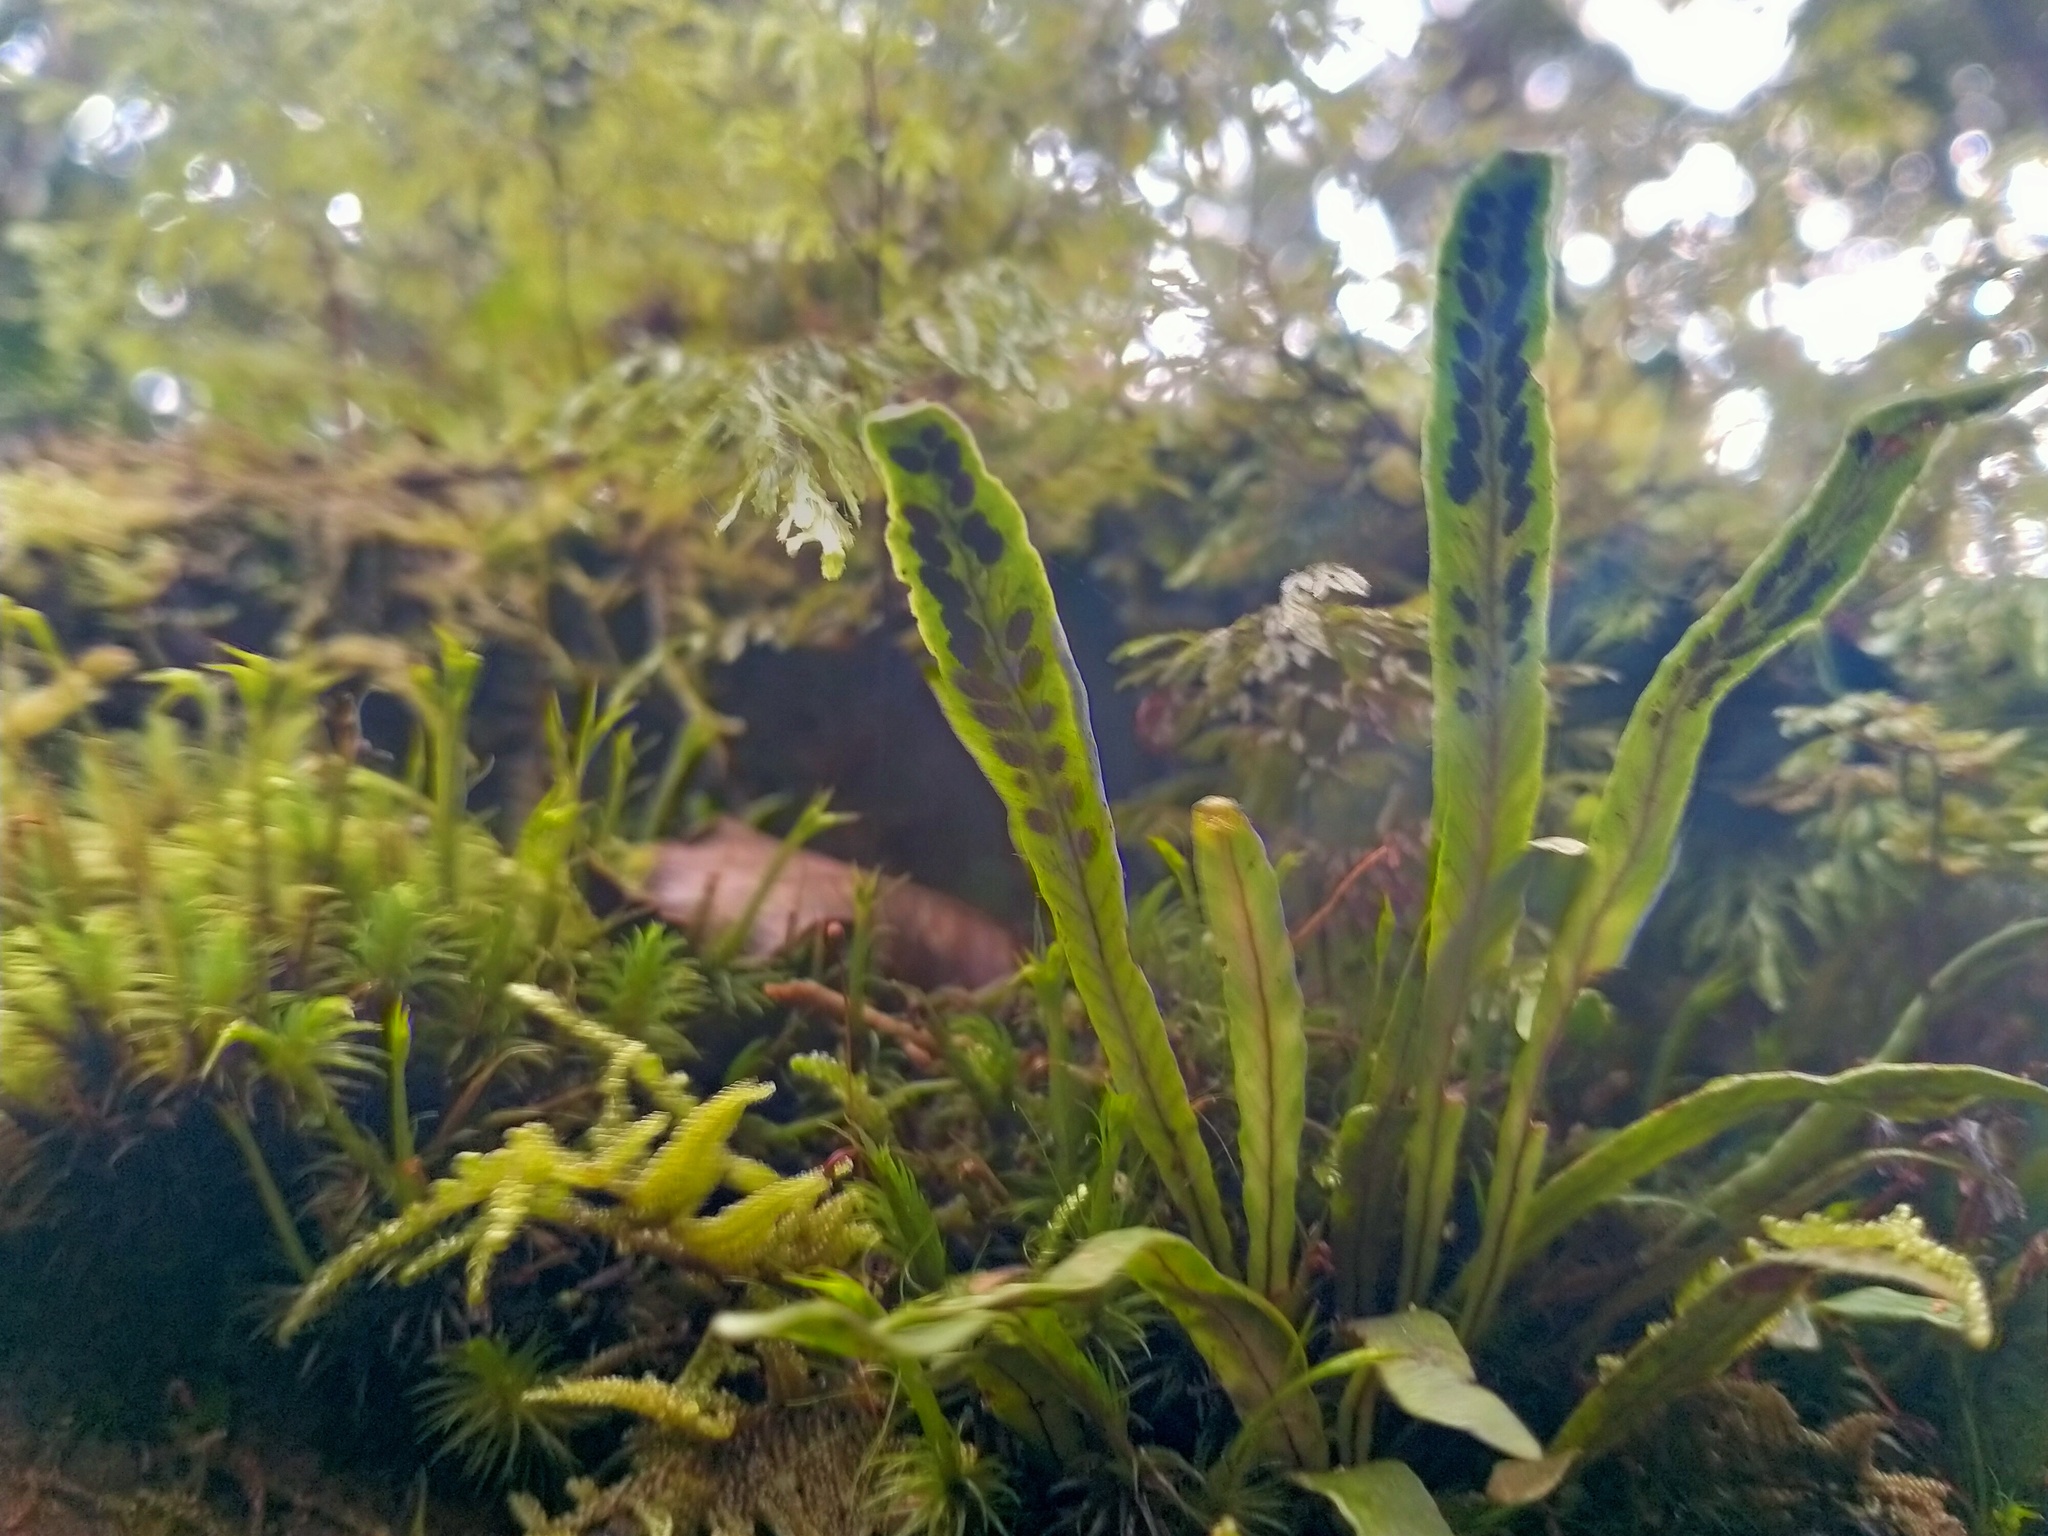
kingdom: Plantae
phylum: Tracheophyta
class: Polypodiopsida
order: Polypodiales
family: Polypodiaceae
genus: Notogrammitis
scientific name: Notogrammitis billardierei
